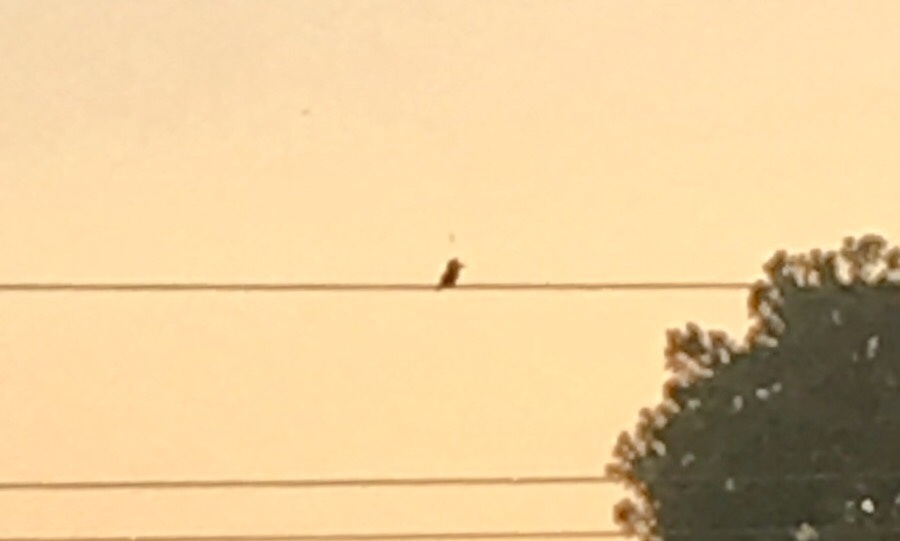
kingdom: Animalia
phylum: Chordata
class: Aves
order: Coraciiformes
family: Alcedinidae
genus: Megaceryle
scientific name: Megaceryle alcyon
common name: Belted kingfisher
